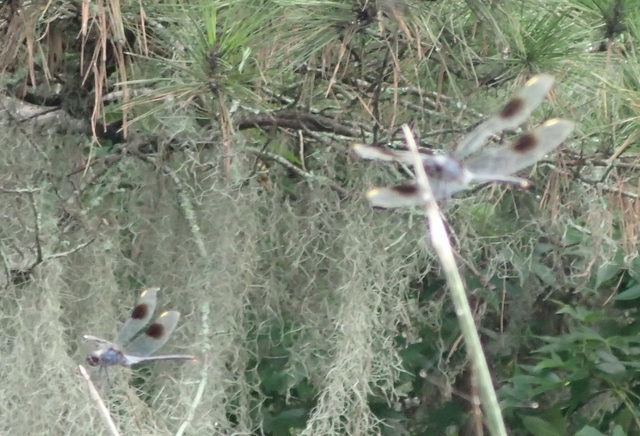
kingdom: Animalia
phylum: Arthropoda
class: Insecta
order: Odonata
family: Libellulidae
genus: Brachymesia
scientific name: Brachymesia gravida
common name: Four-spotted pennant
